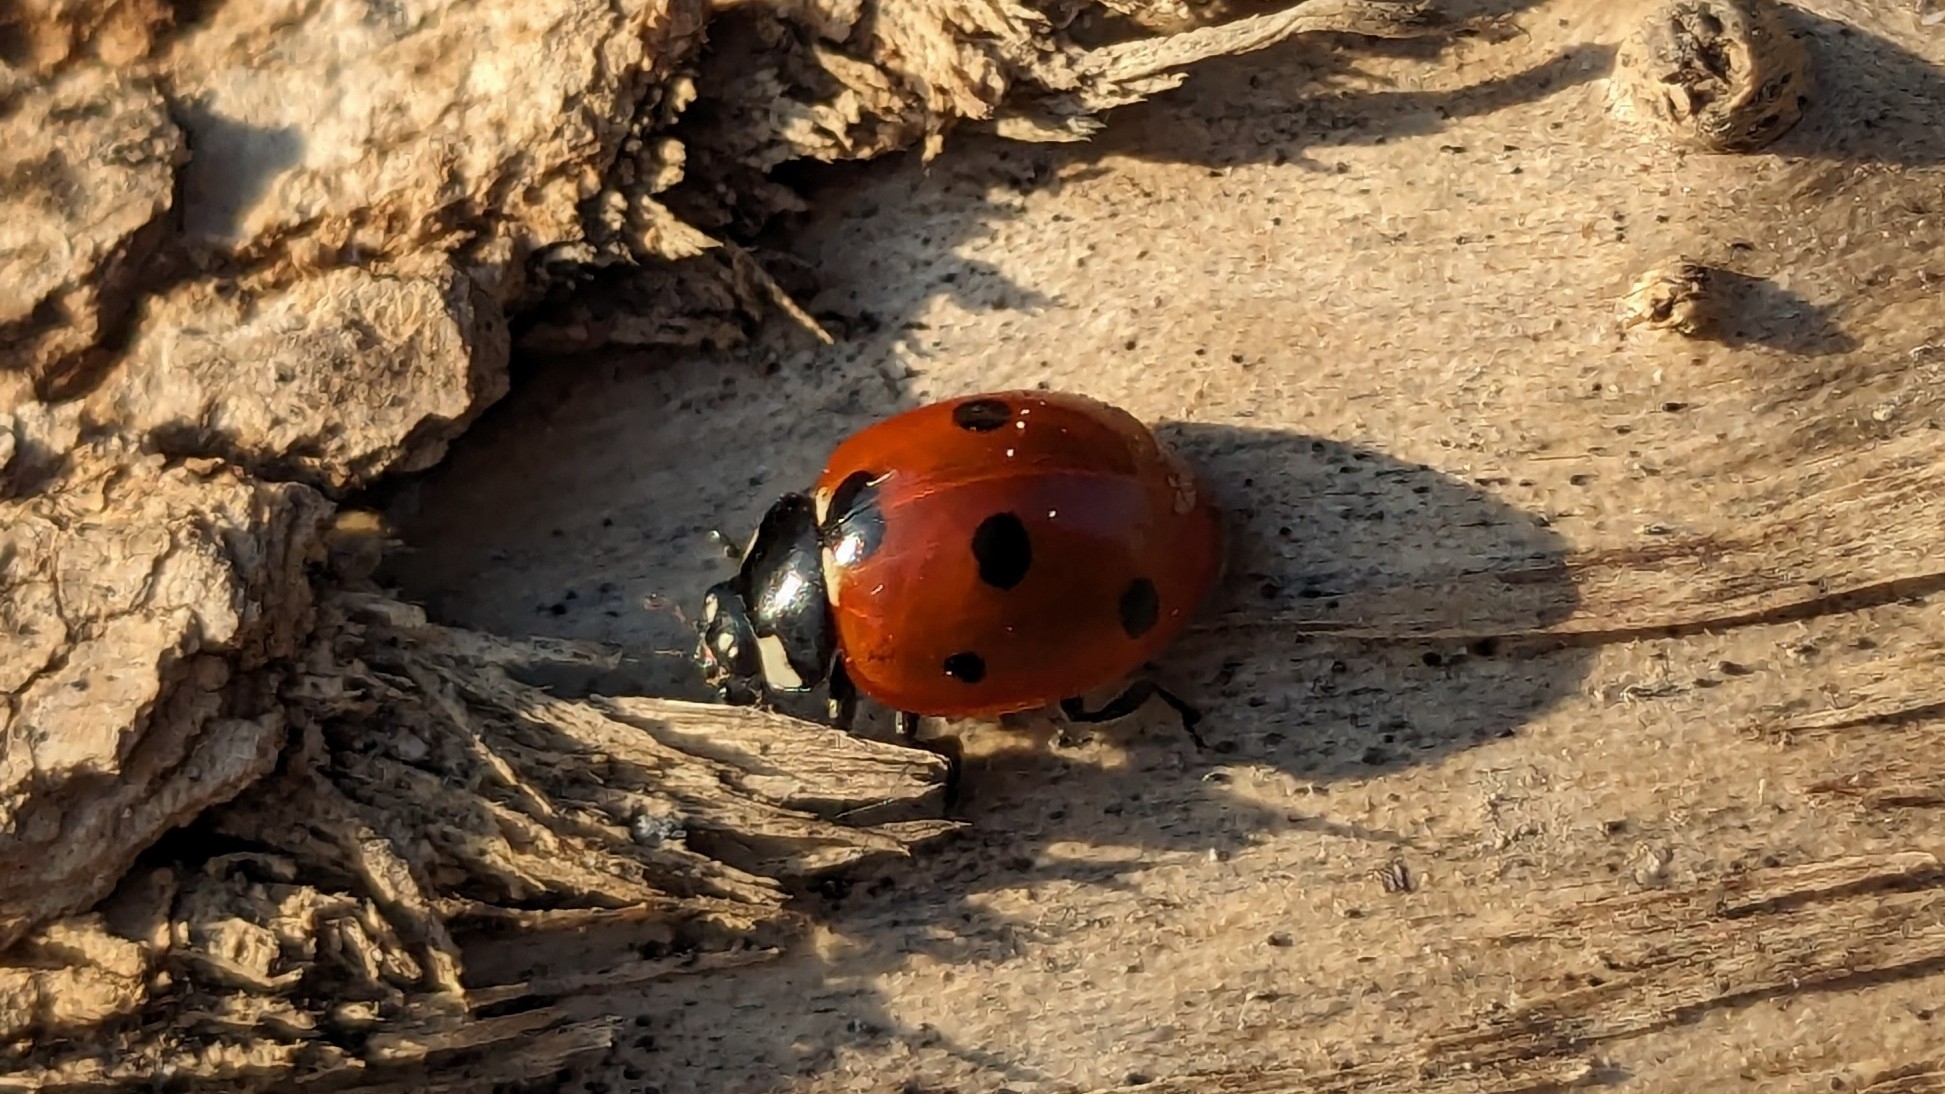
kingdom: Animalia
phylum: Arthropoda
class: Insecta
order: Coleoptera
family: Coccinellidae
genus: Coccinella
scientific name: Coccinella septempunctata
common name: Sevenspotted lady beetle
